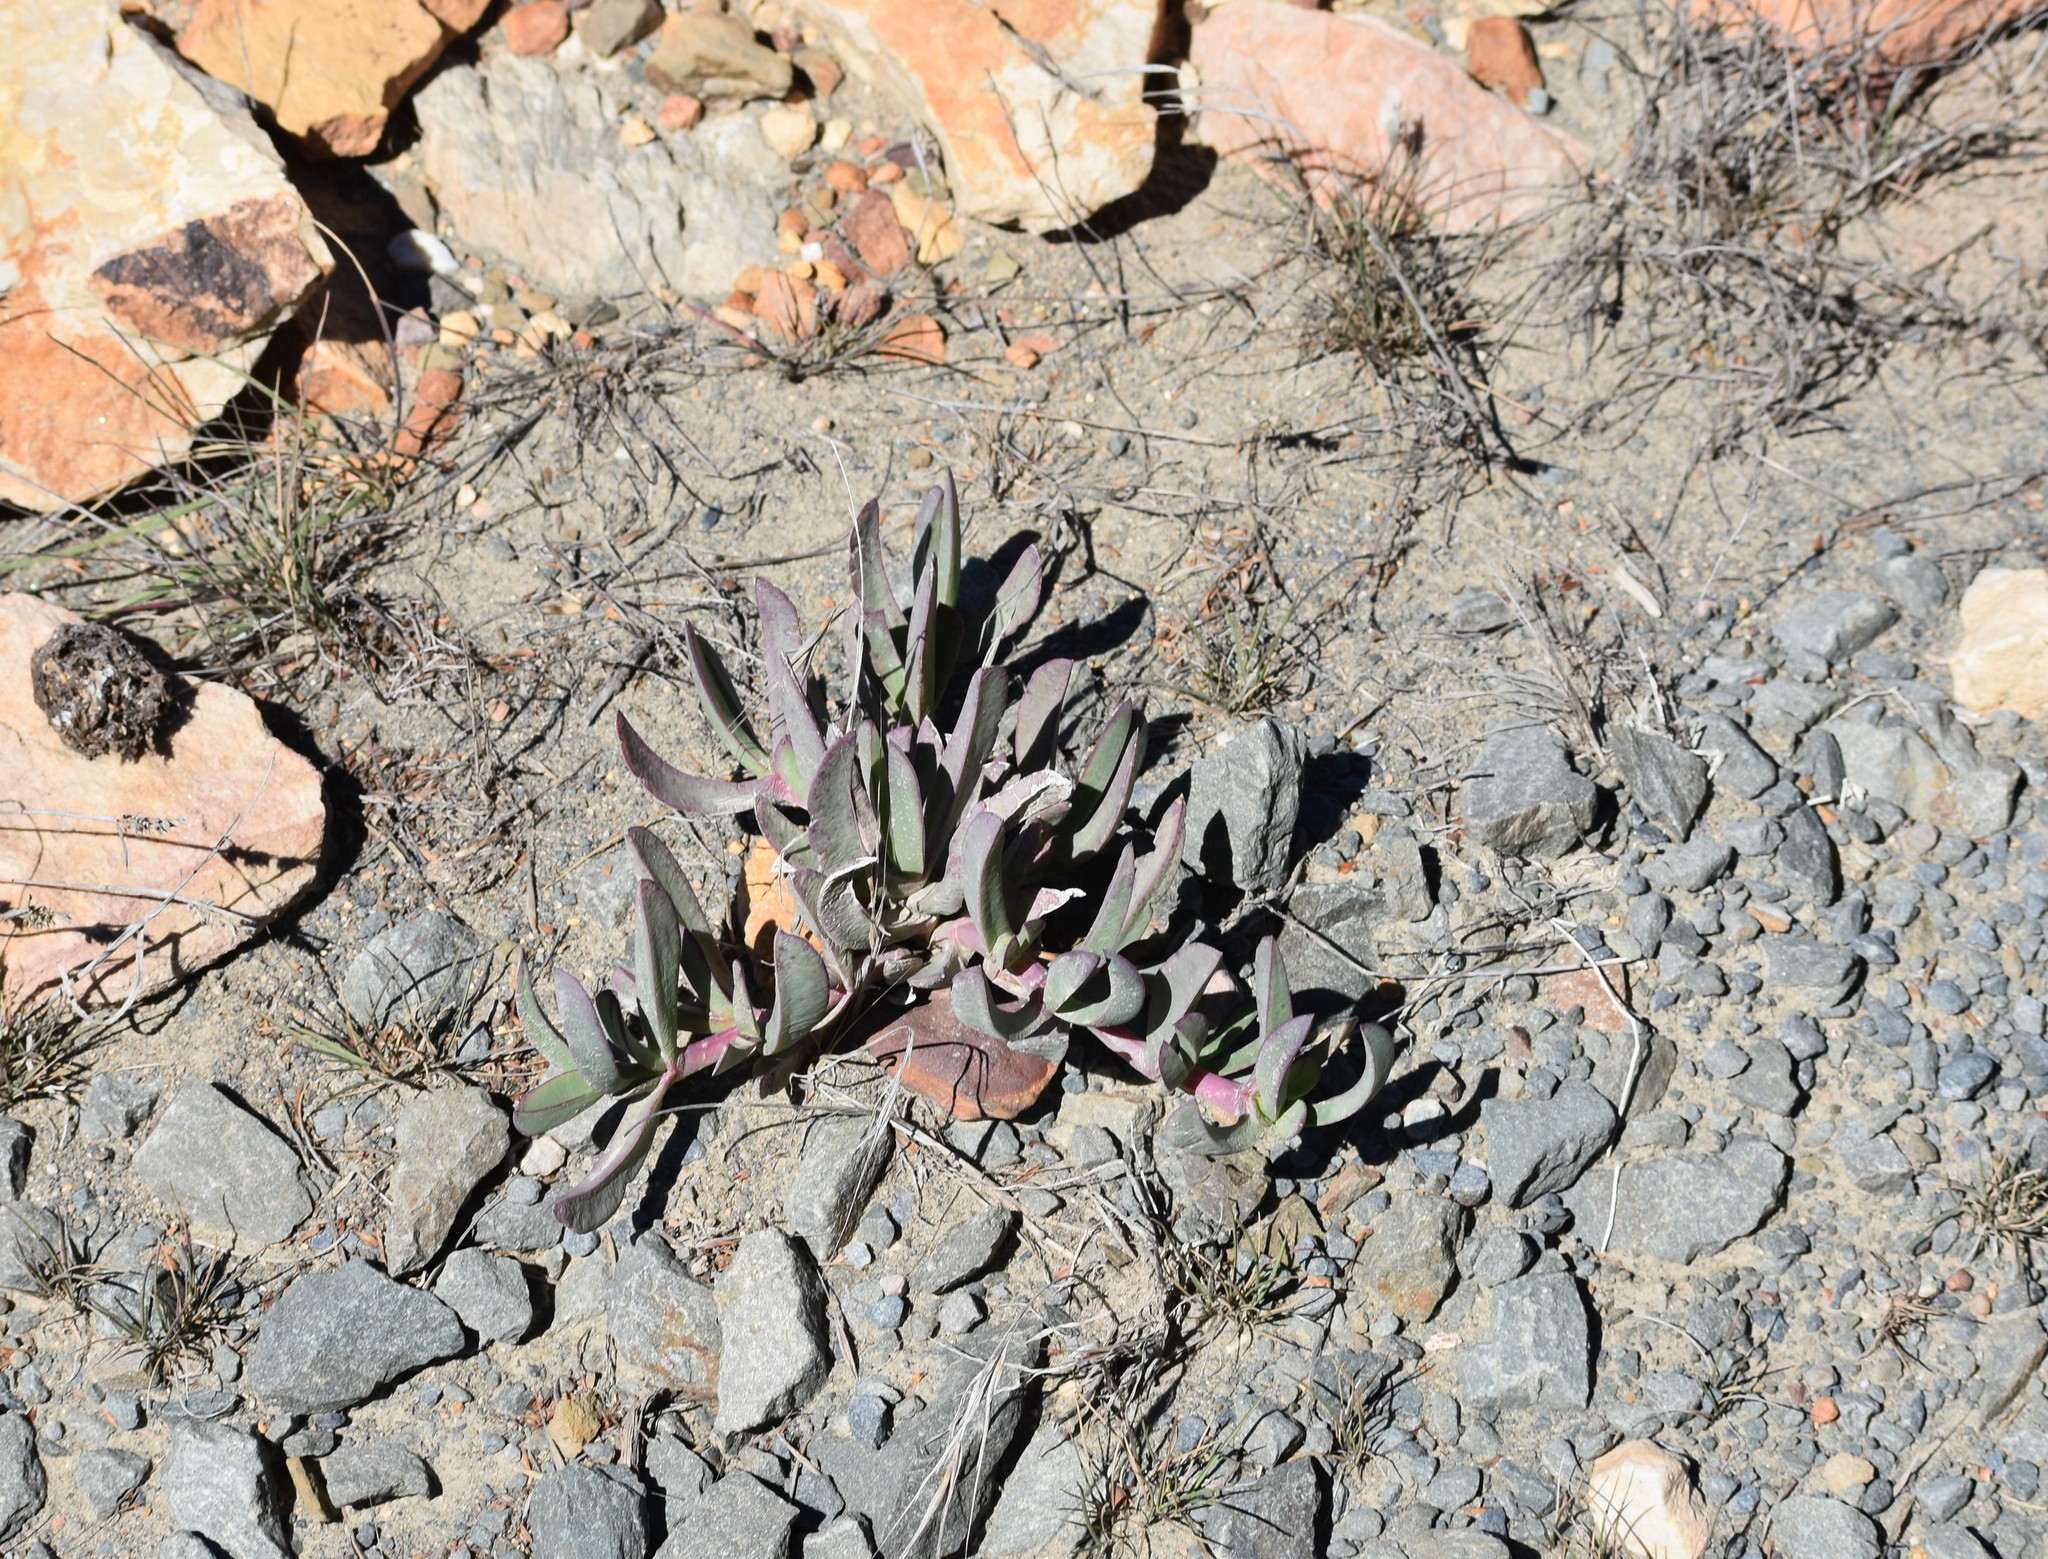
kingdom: Plantae
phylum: Tracheophyta
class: Magnoliopsida
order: Caryophyllales
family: Aizoaceae
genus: Carpobrotus
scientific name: Carpobrotus mellei
